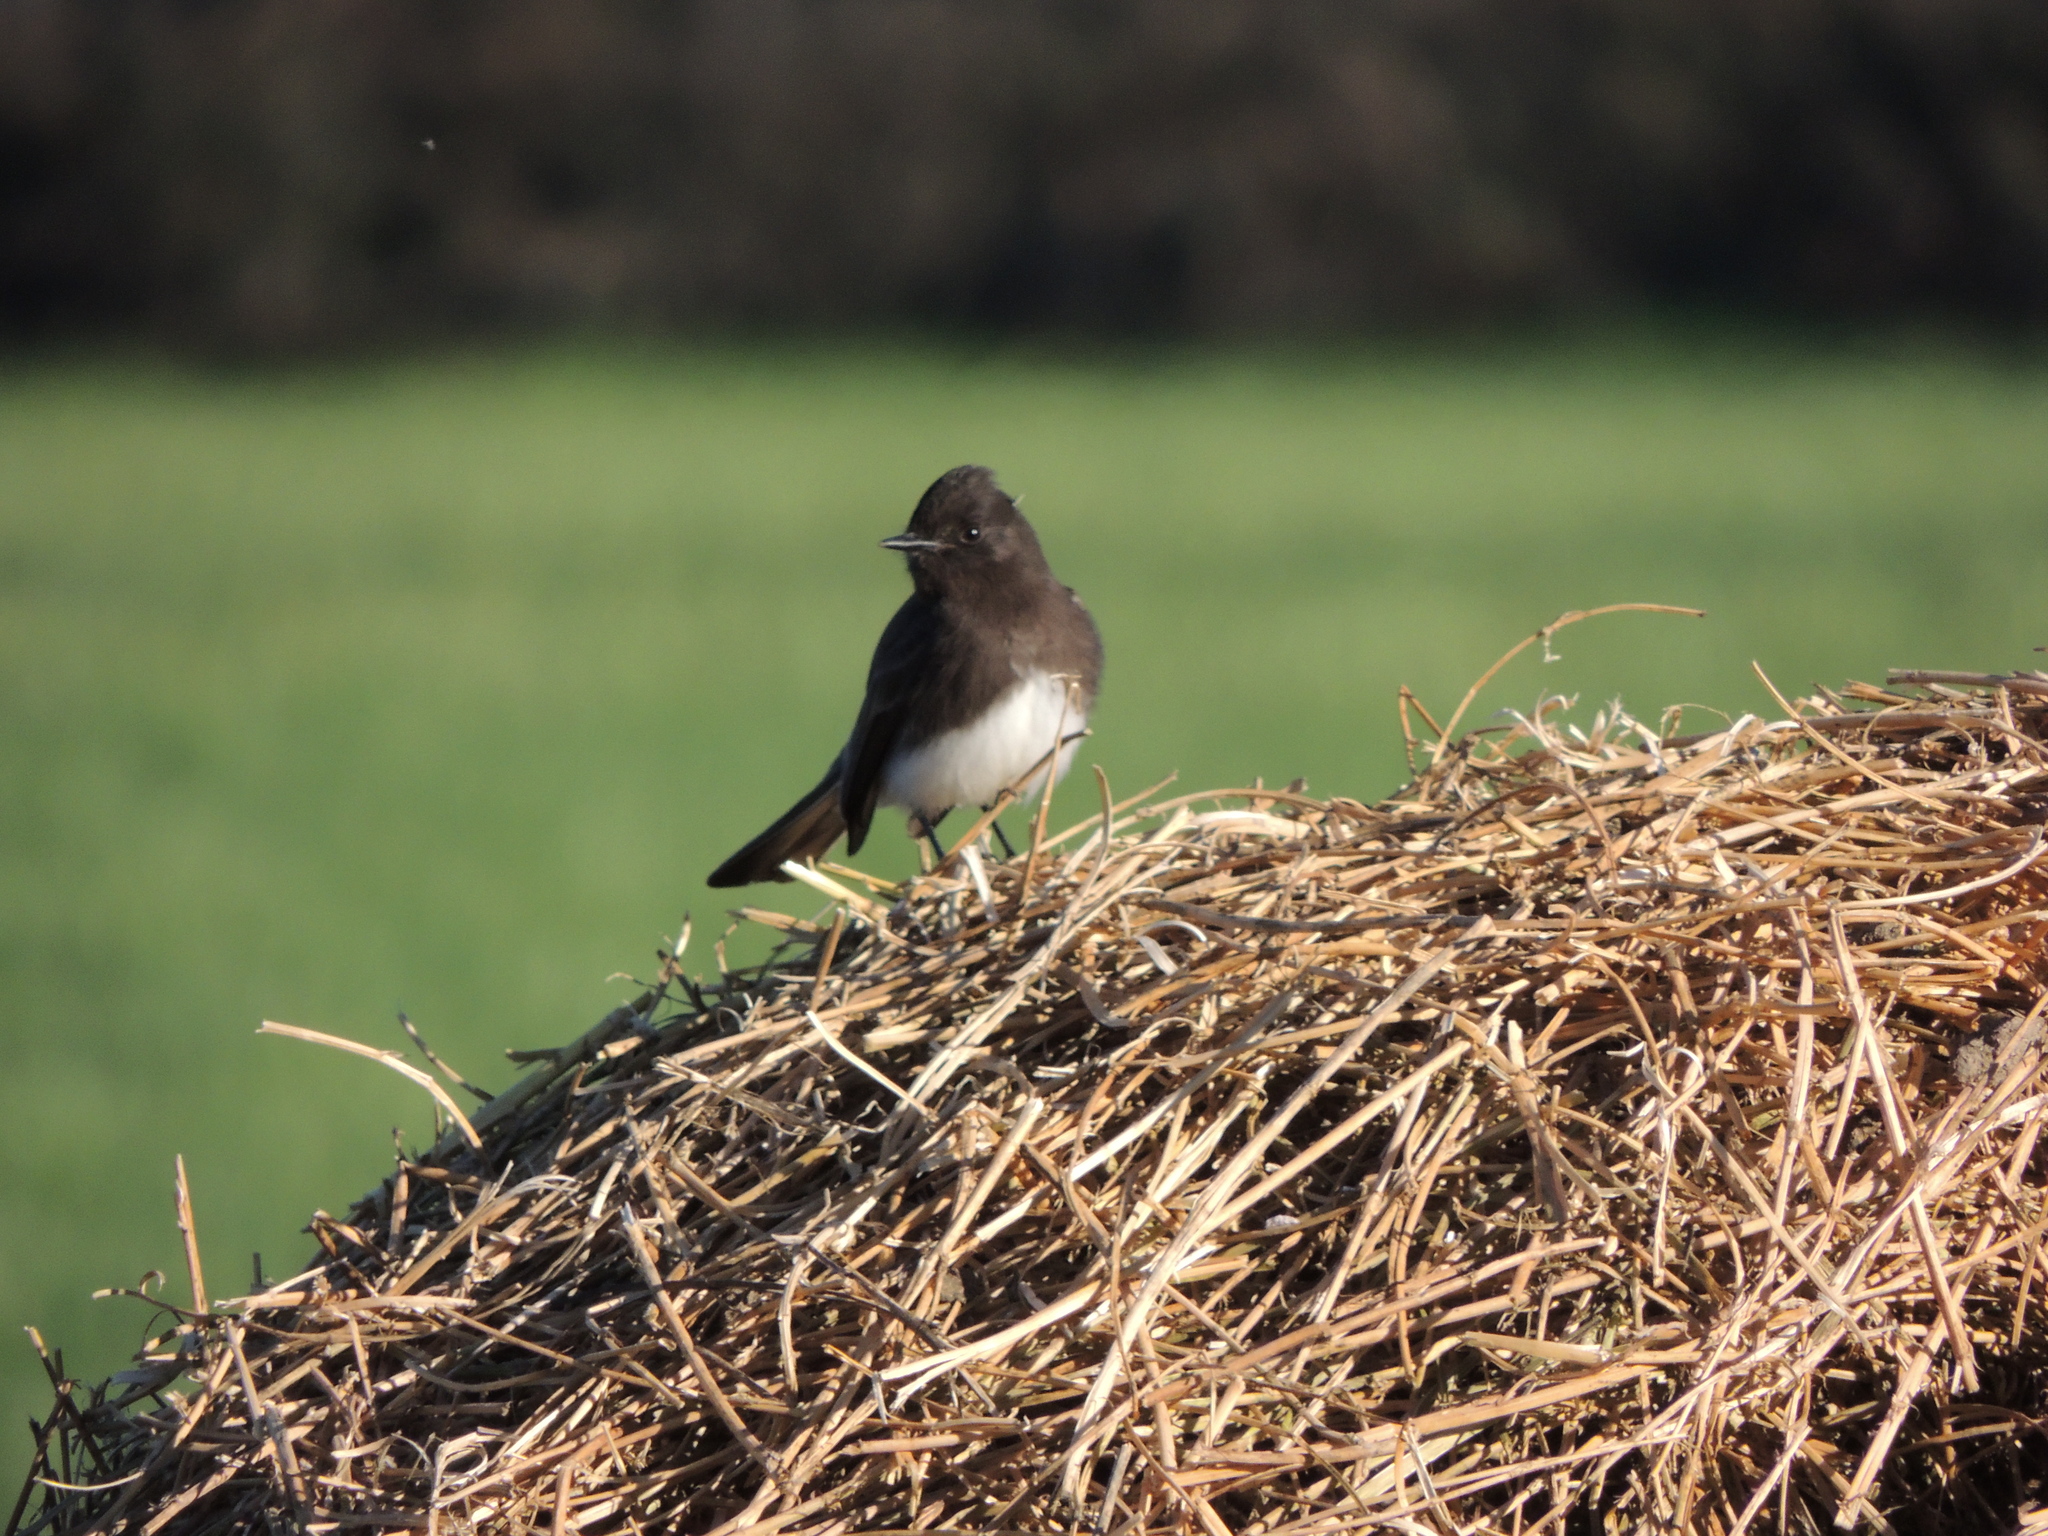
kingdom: Animalia
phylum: Chordata
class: Aves
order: Passeriformes
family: Tyrannidae
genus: Sayornis
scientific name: Sayornis nigricans
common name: Black phoebe
